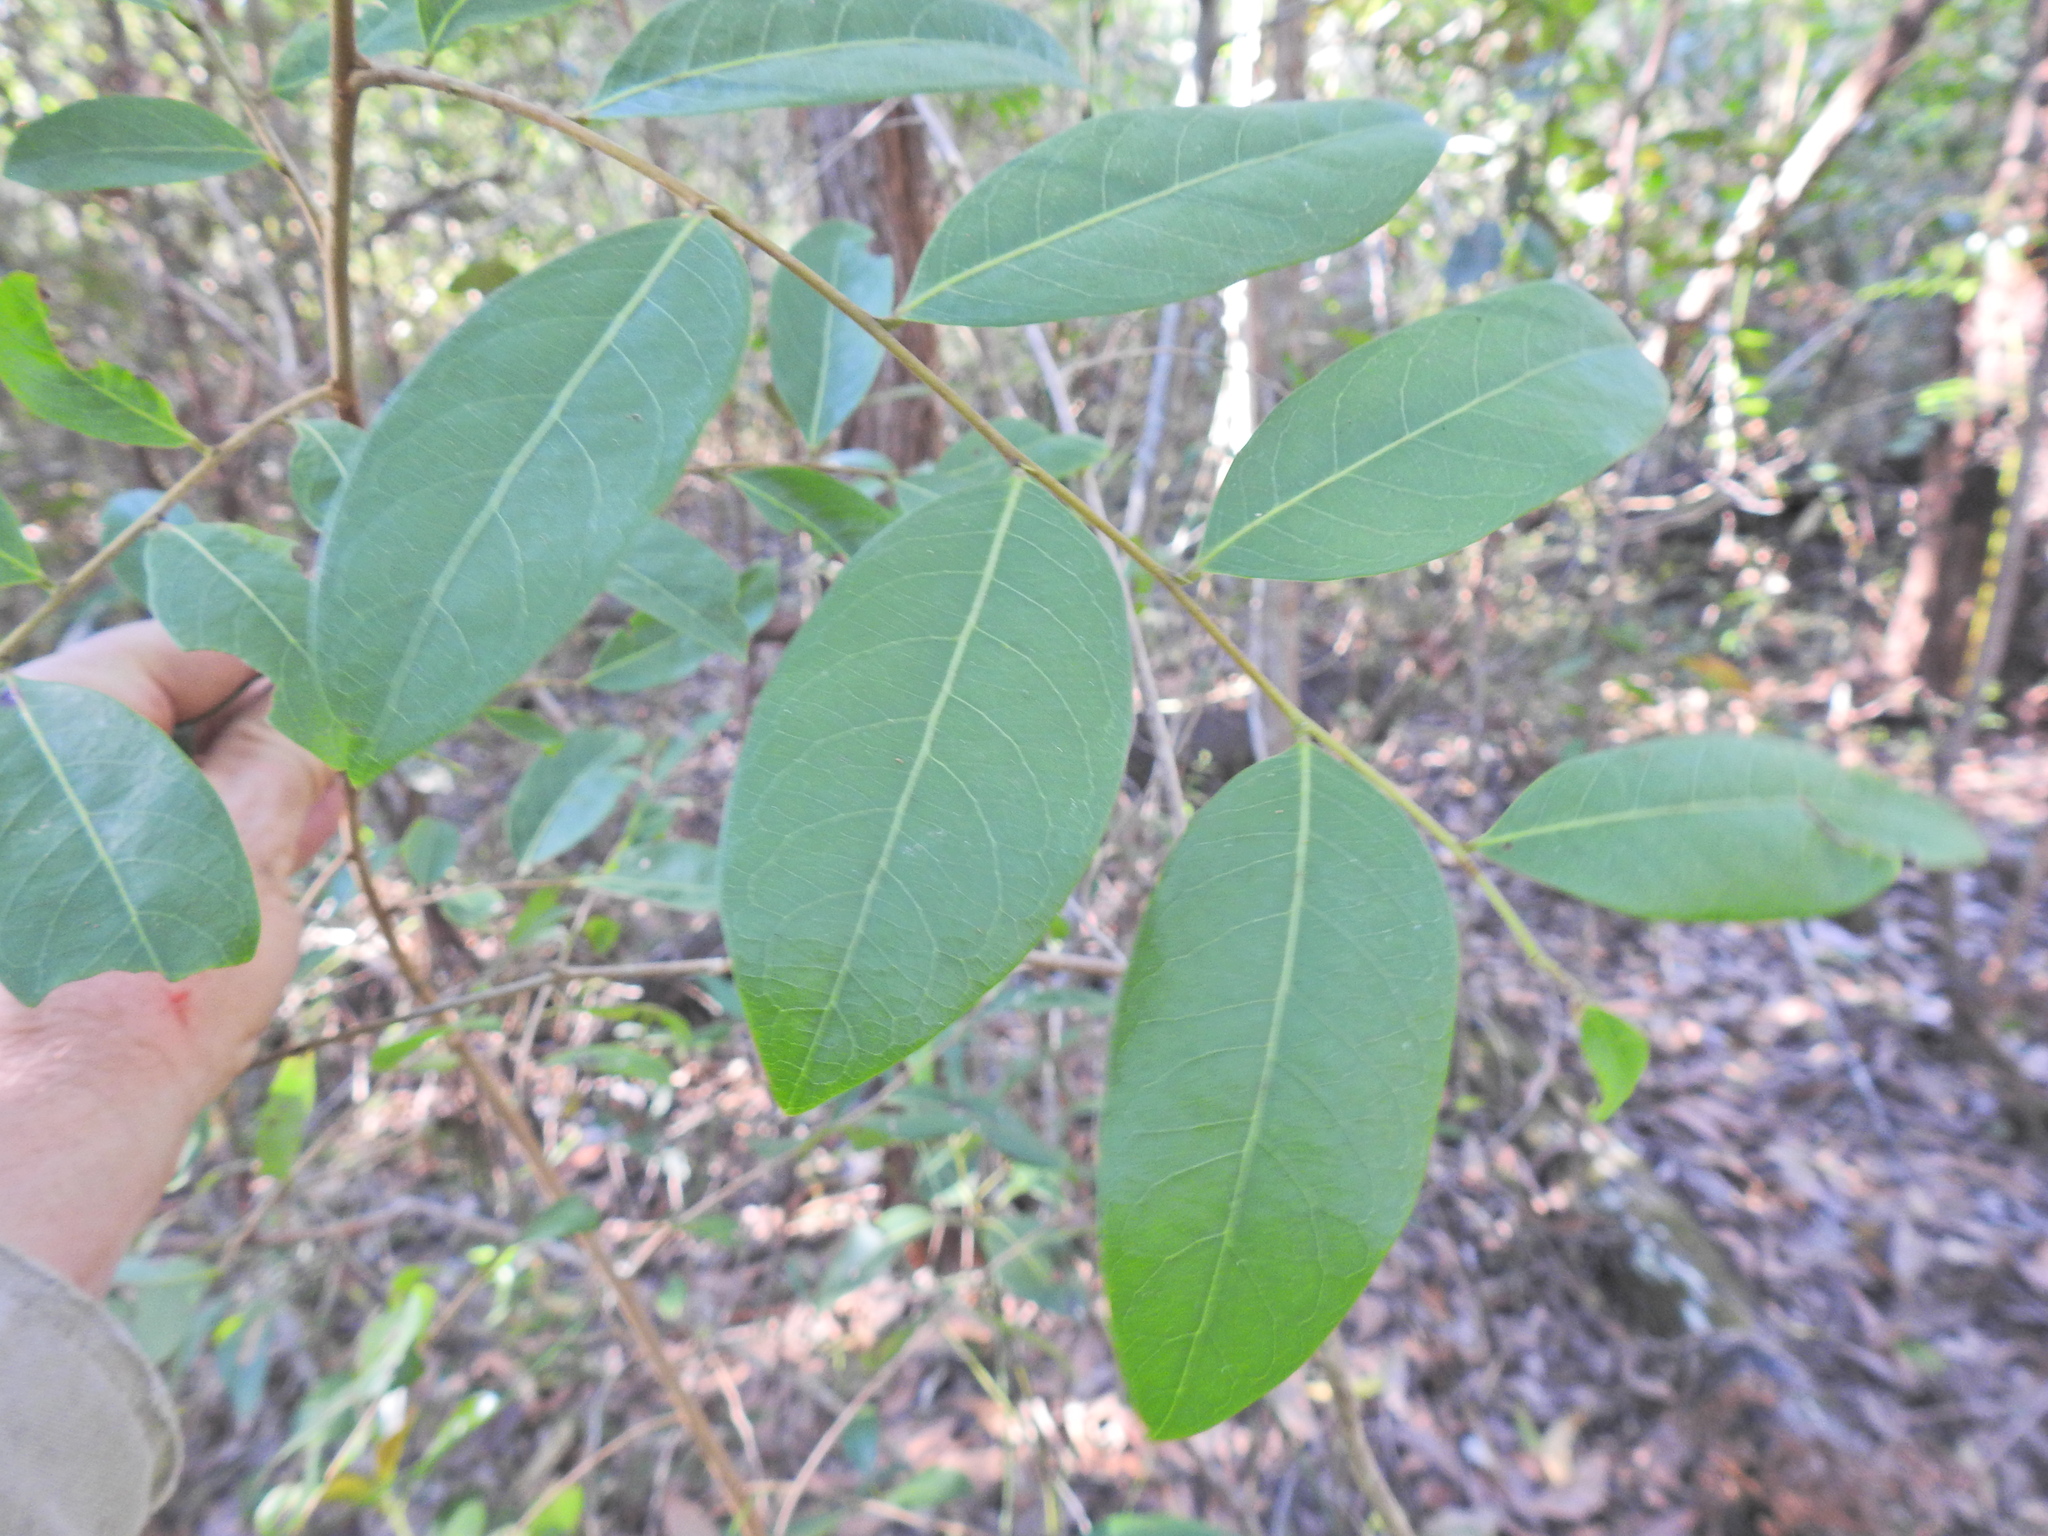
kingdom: Plantae
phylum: Tracheophyta
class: Magnoliopsida
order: Malpighiales
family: Phyllanthaceae
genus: Glochidion
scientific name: Glochidion lobocarpum
